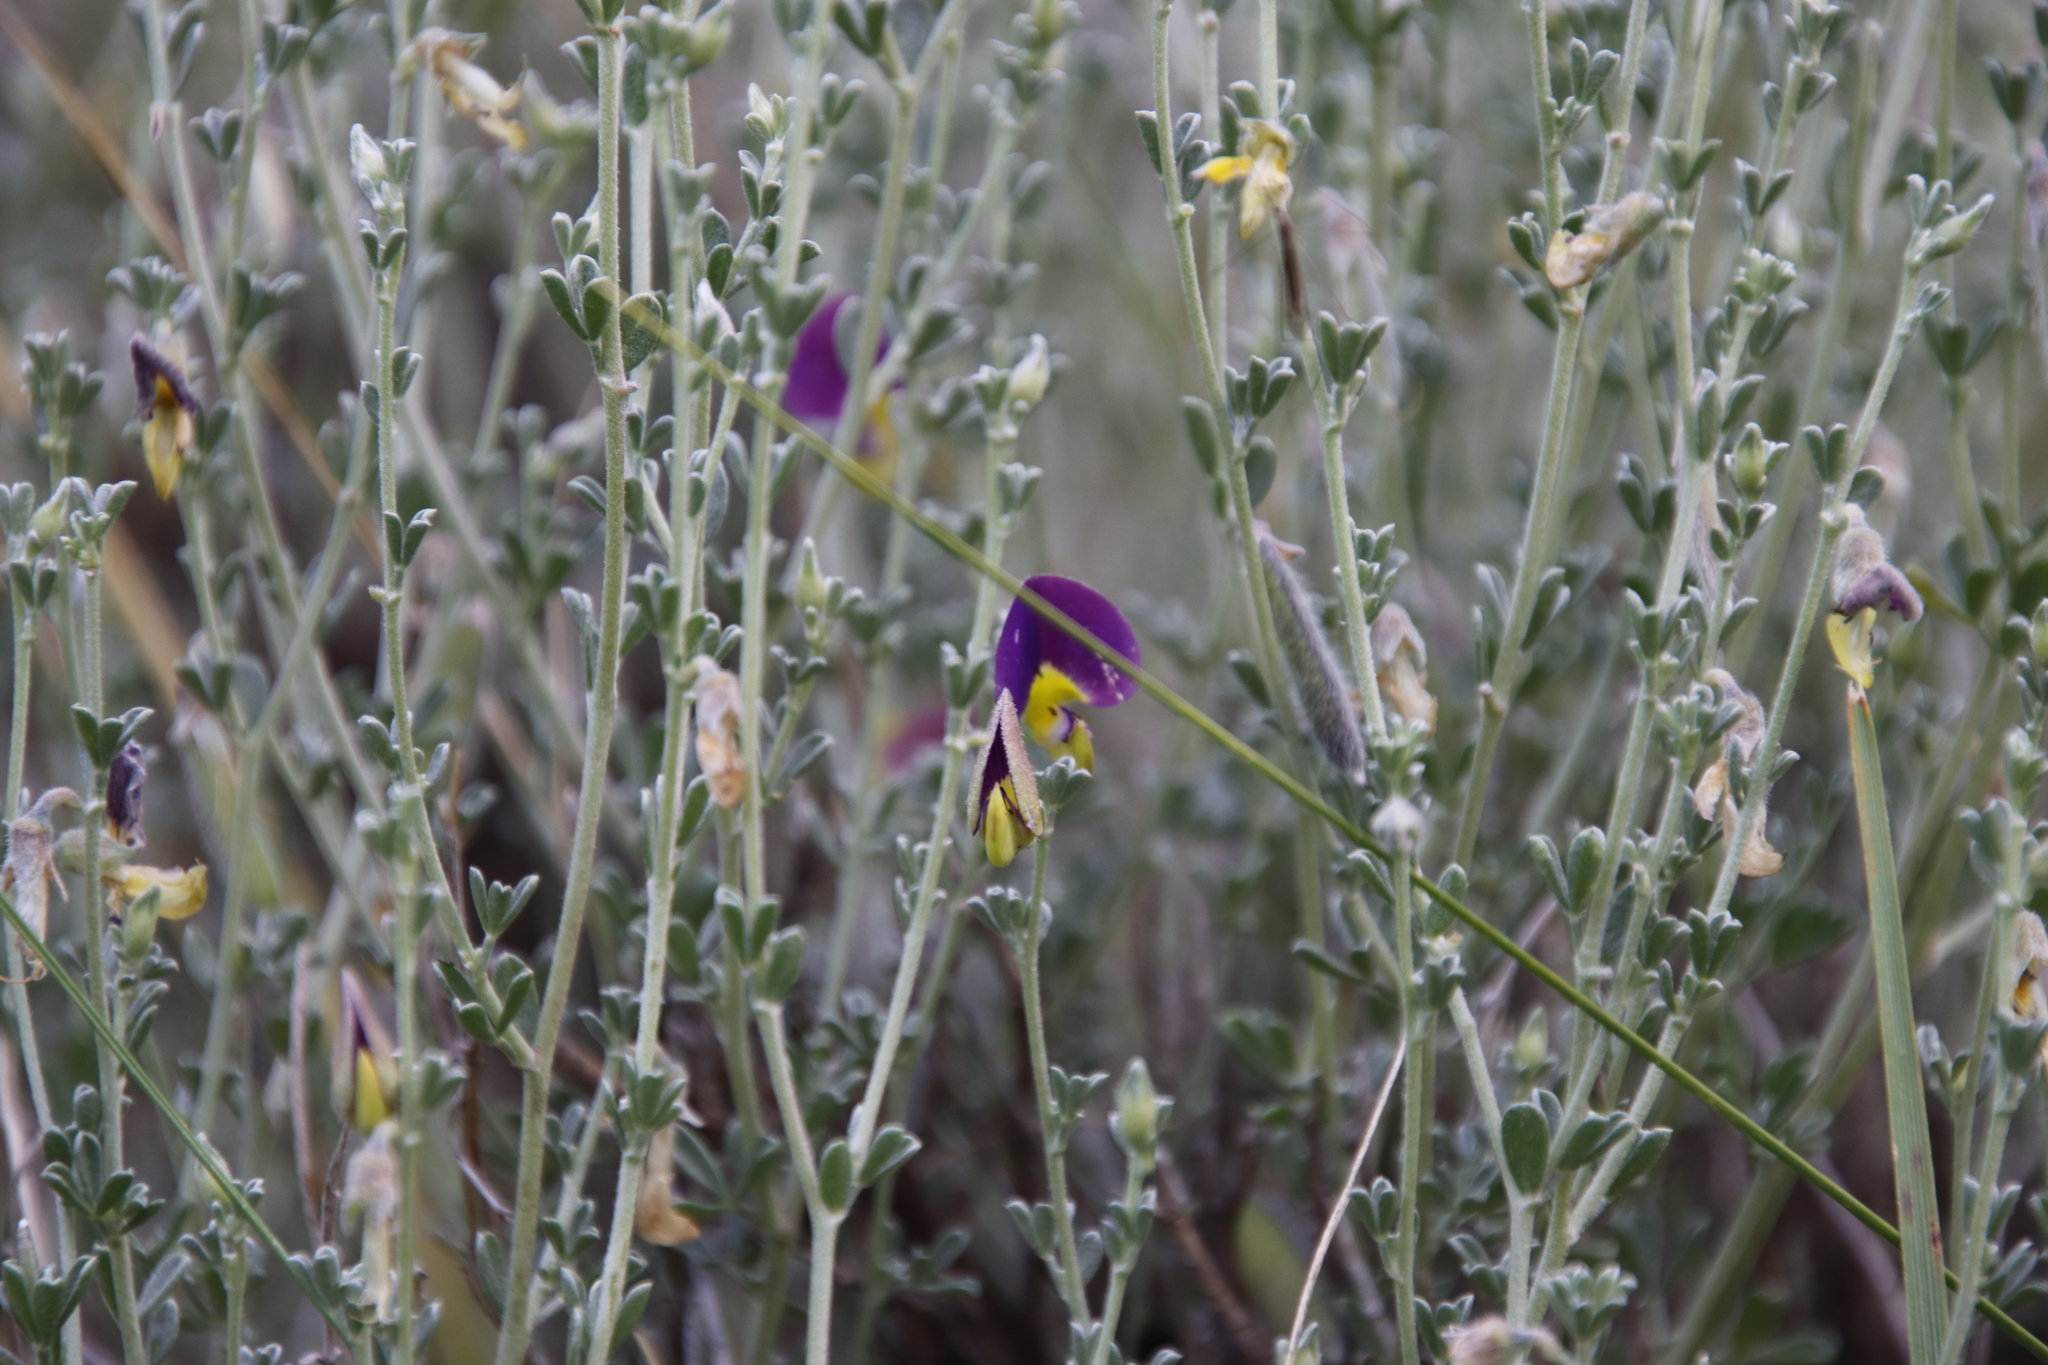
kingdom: Plantae
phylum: Tracheophyta
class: Magnoliopsida
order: Fabales
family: Fabaceae
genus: Lotononis
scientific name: Lotononis minor
